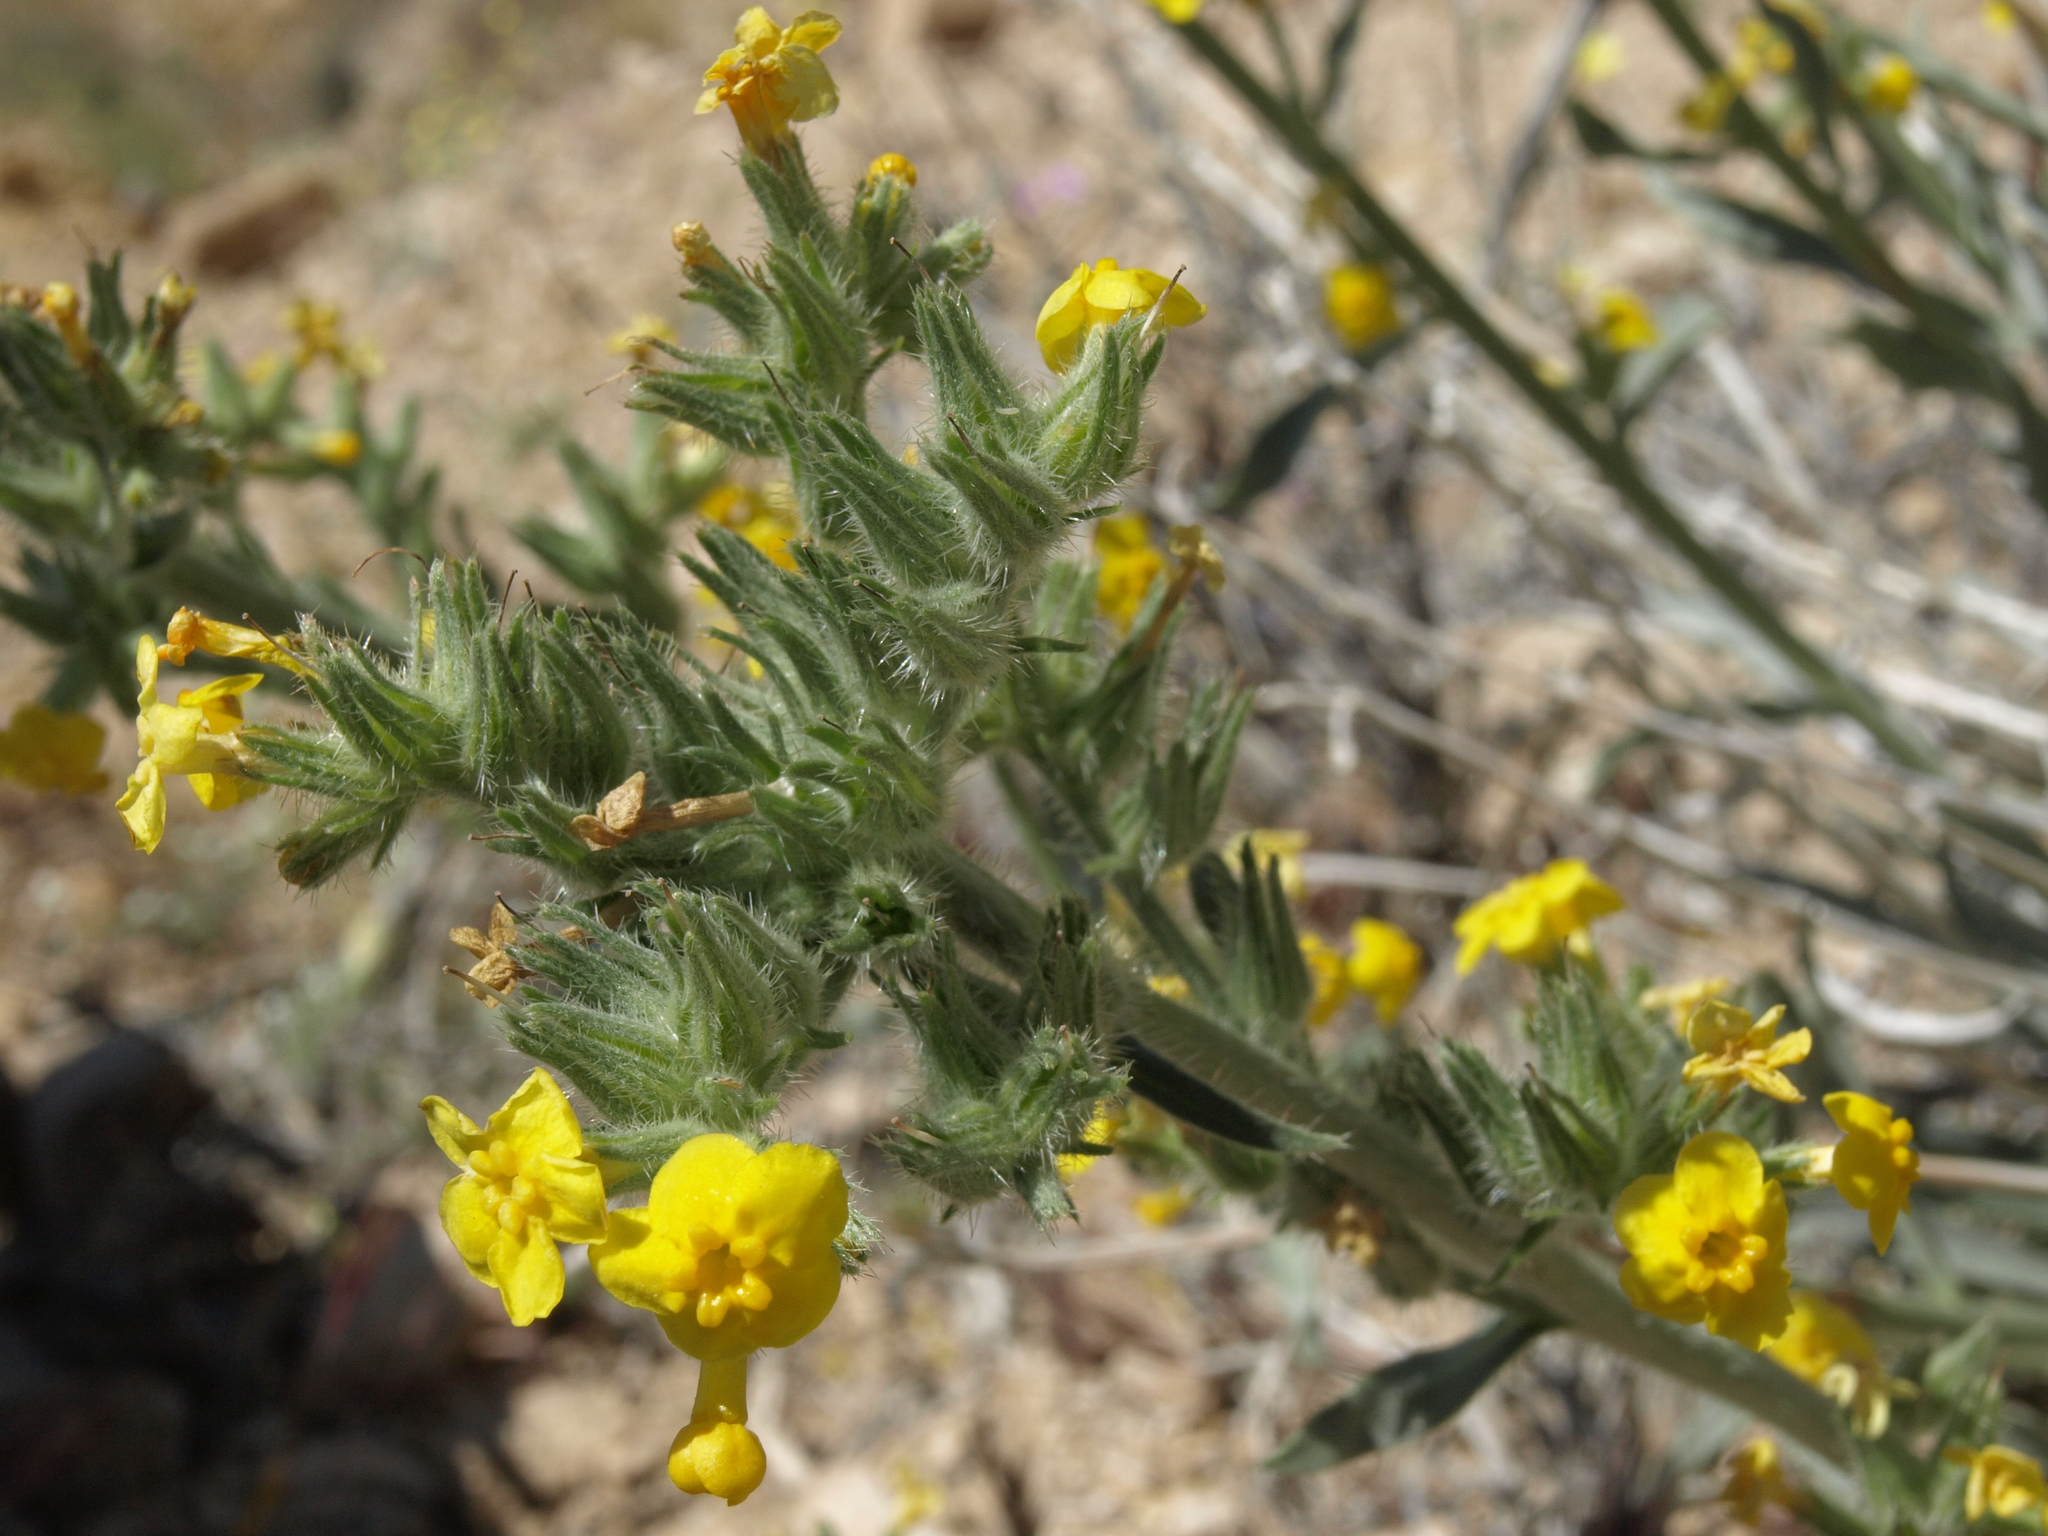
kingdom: Plantae
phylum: Tracheophyta
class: Magnoliopsida
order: Boraginales
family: Boraginaceae
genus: Oreocarya
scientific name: Oreocarya confertiflora
